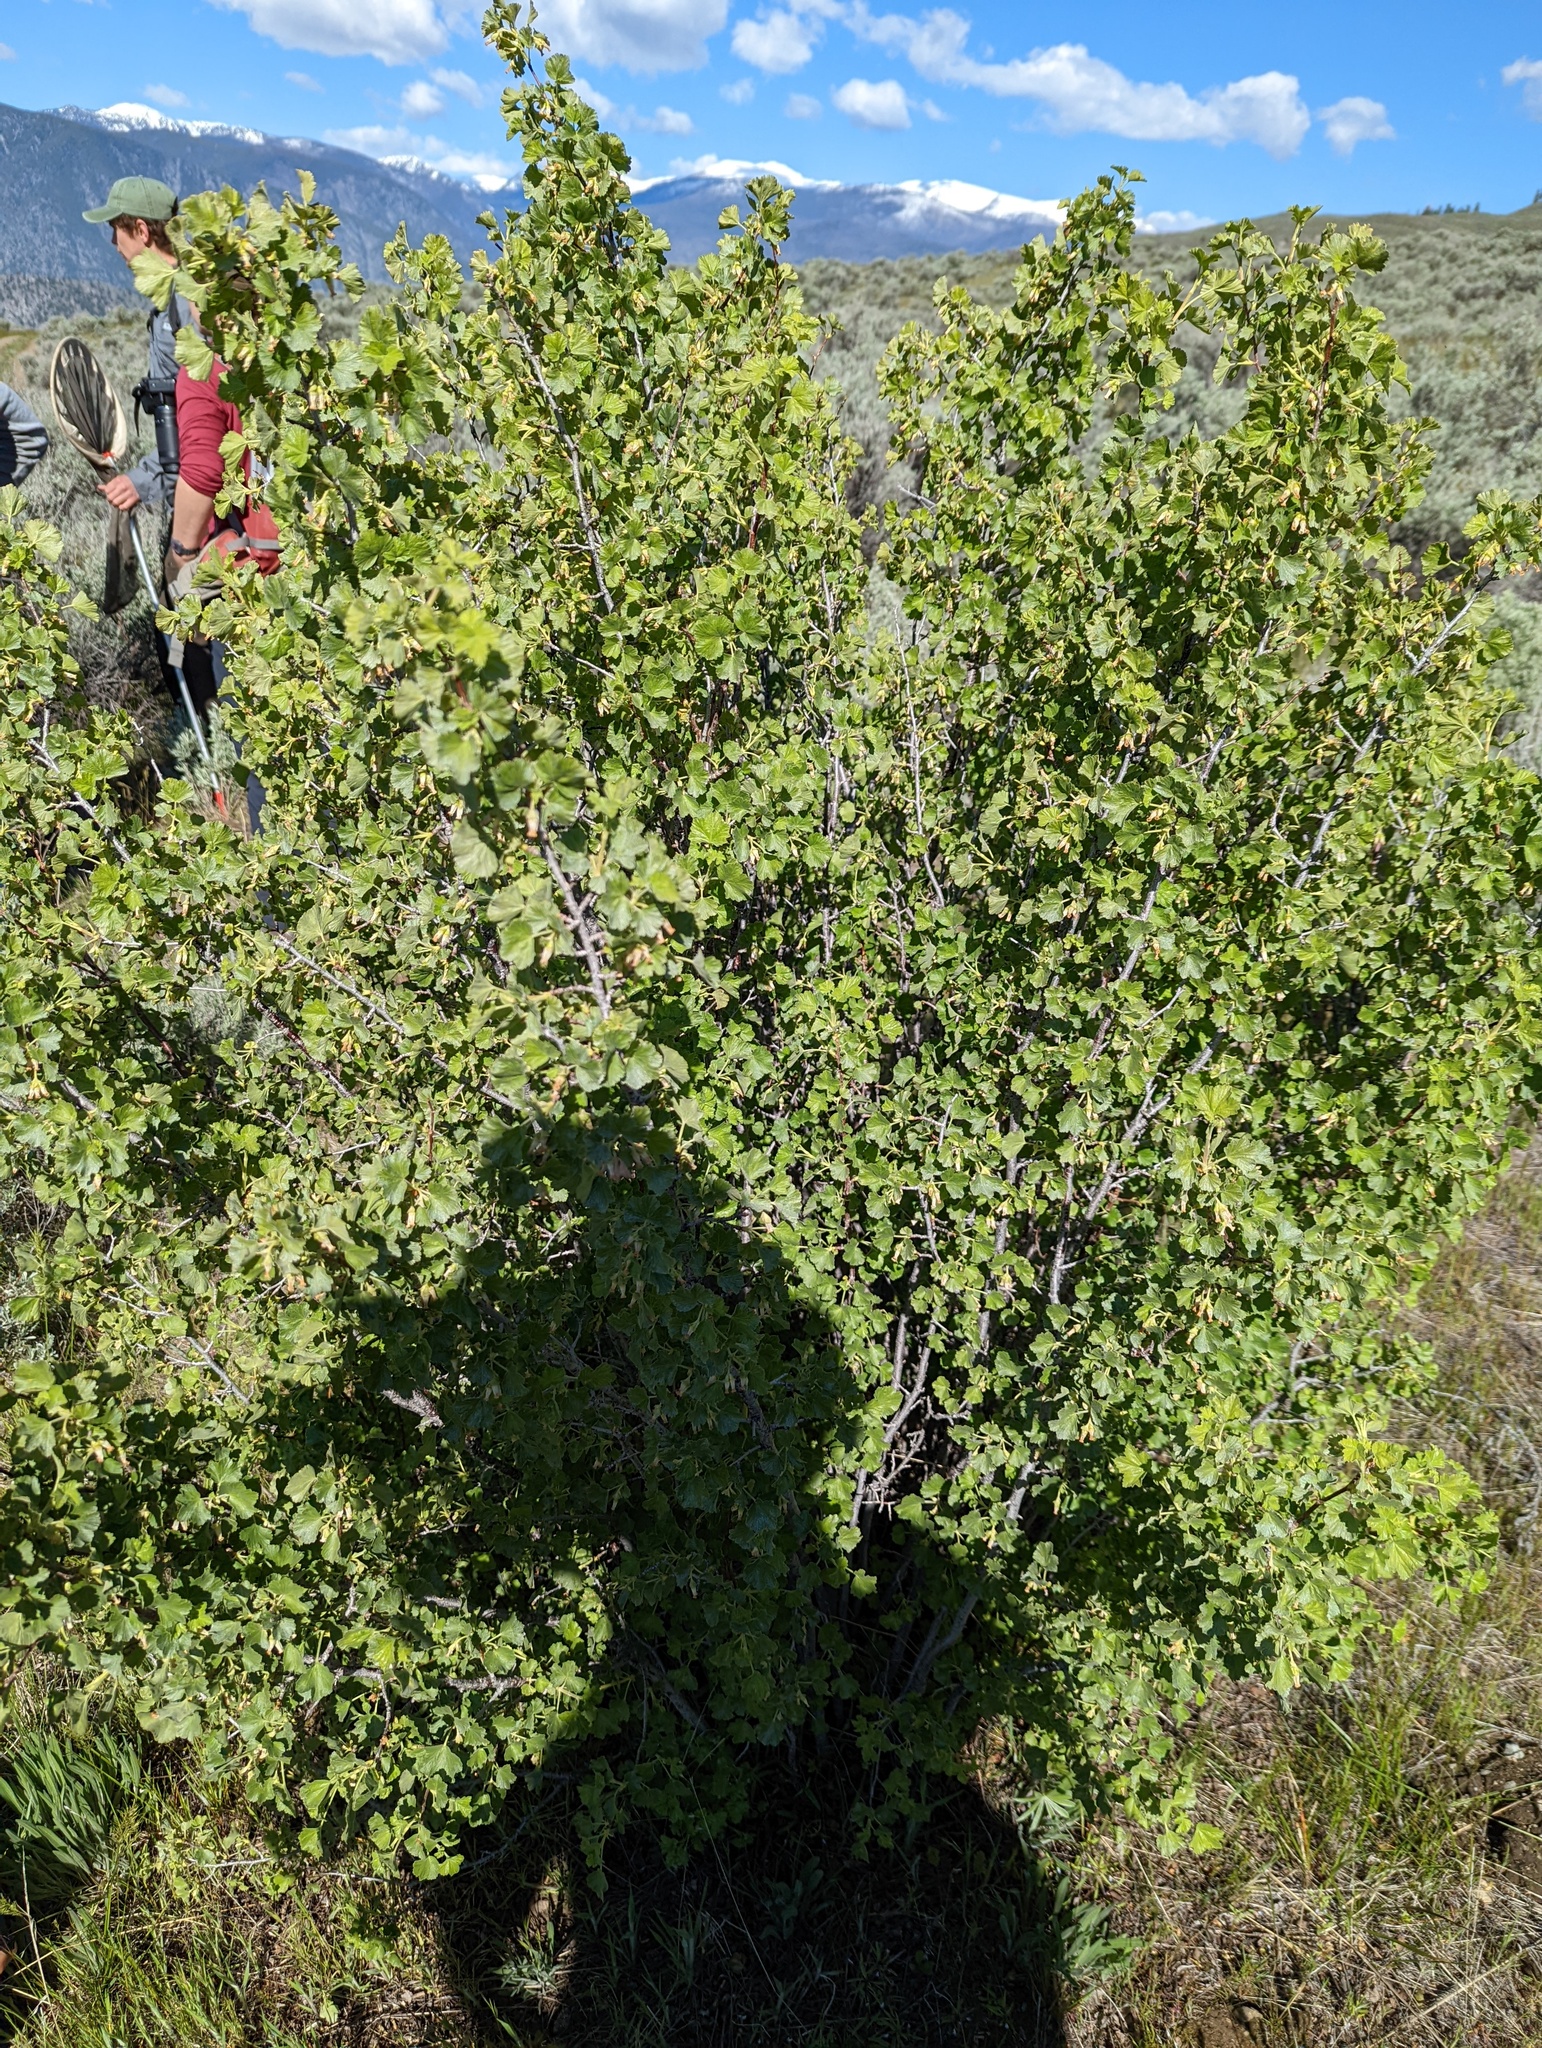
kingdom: Plantae
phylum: Tracheophyta
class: Magnoliopsida
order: Saxifragales
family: Grossulariaceae
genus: Ribes
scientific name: Ribes cereum
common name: Wax currant
